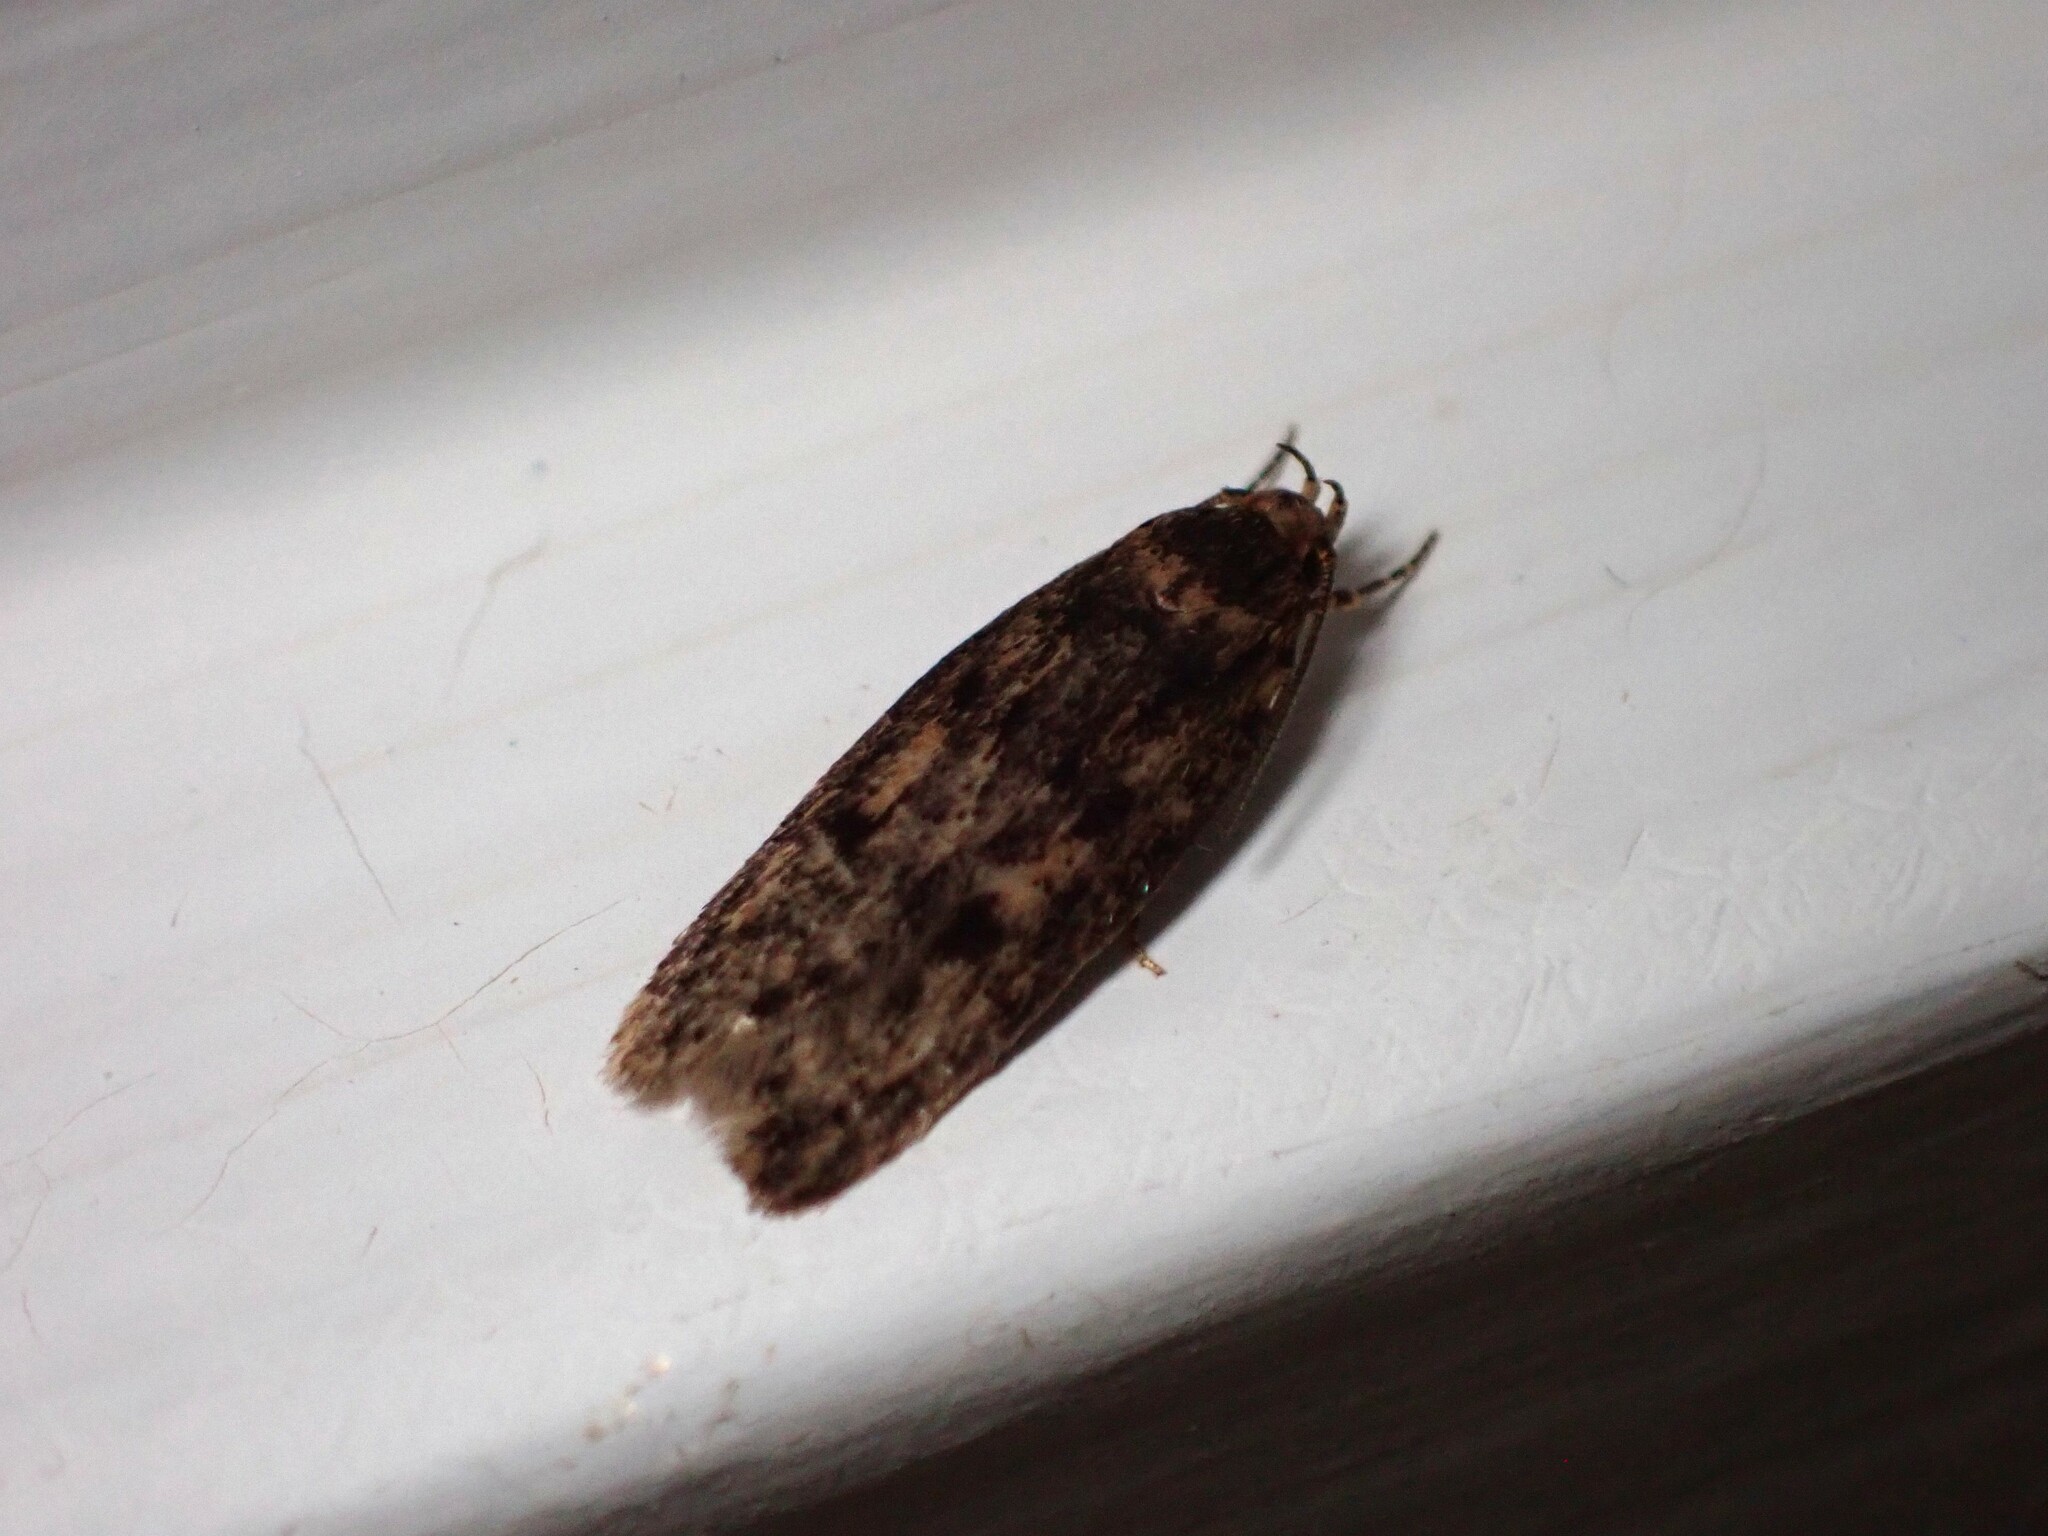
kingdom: Animalia
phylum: Arthropoda
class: Insecta
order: Lepidoptera
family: Oecophoridae
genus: Hofmannophila
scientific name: Hofmannophila pseudospretella
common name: Brown house moth
